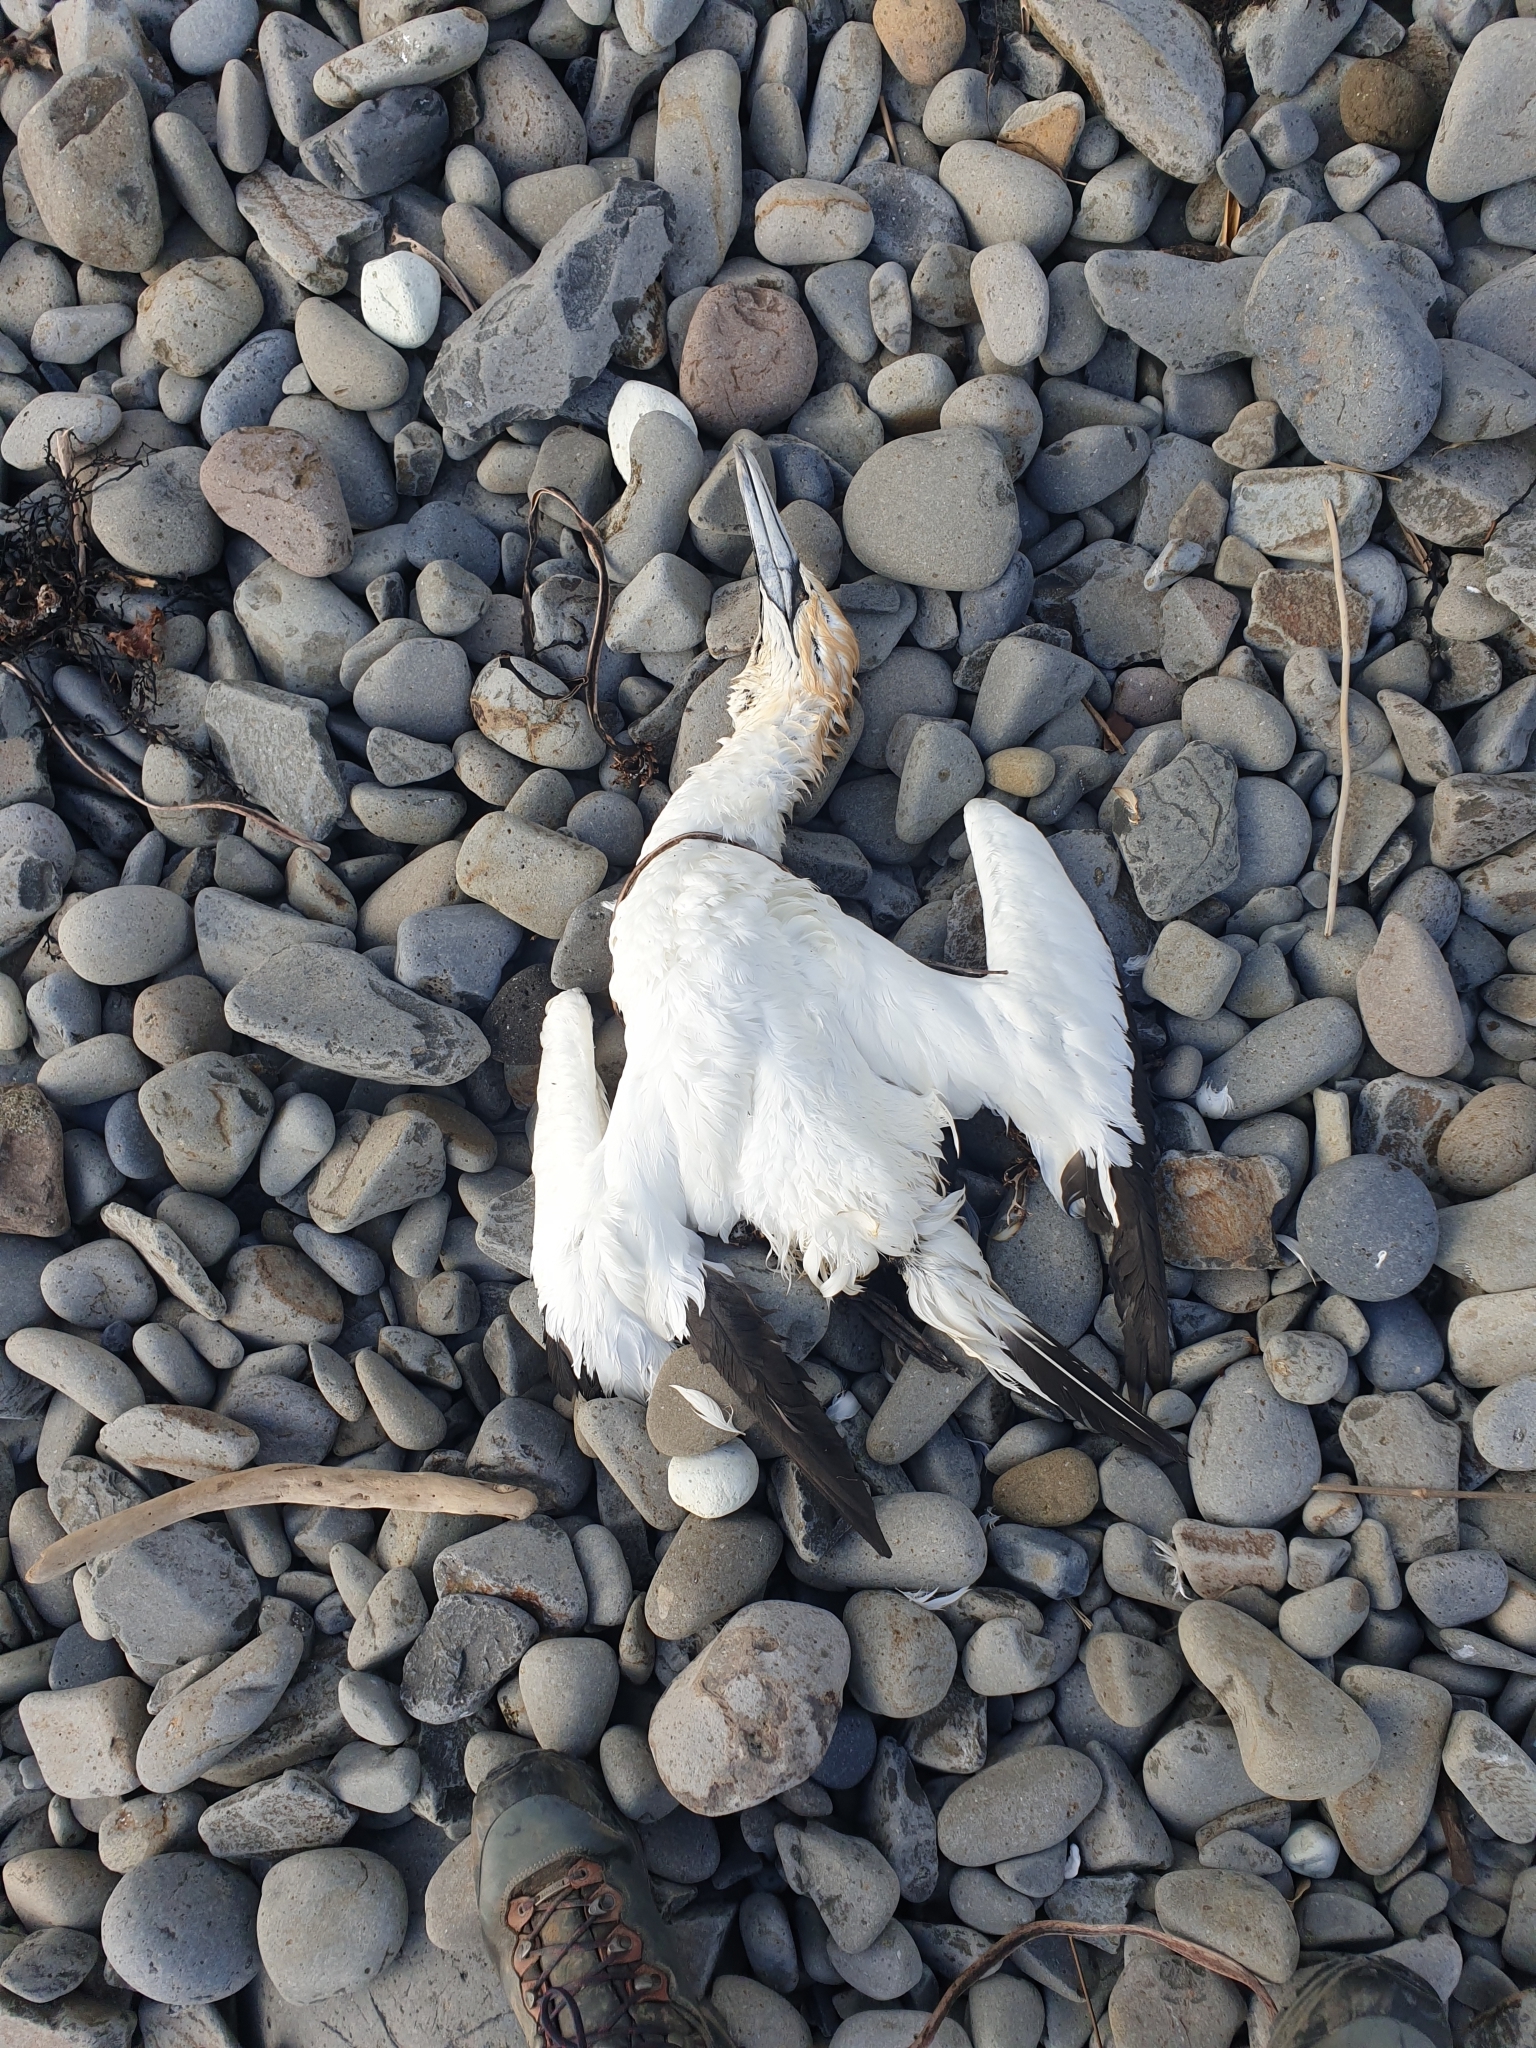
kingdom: Animalia
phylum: Chordata
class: Aves
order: Suliformes
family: Sulidae
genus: Morus
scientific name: Morus serrator
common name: Australasian gannet
